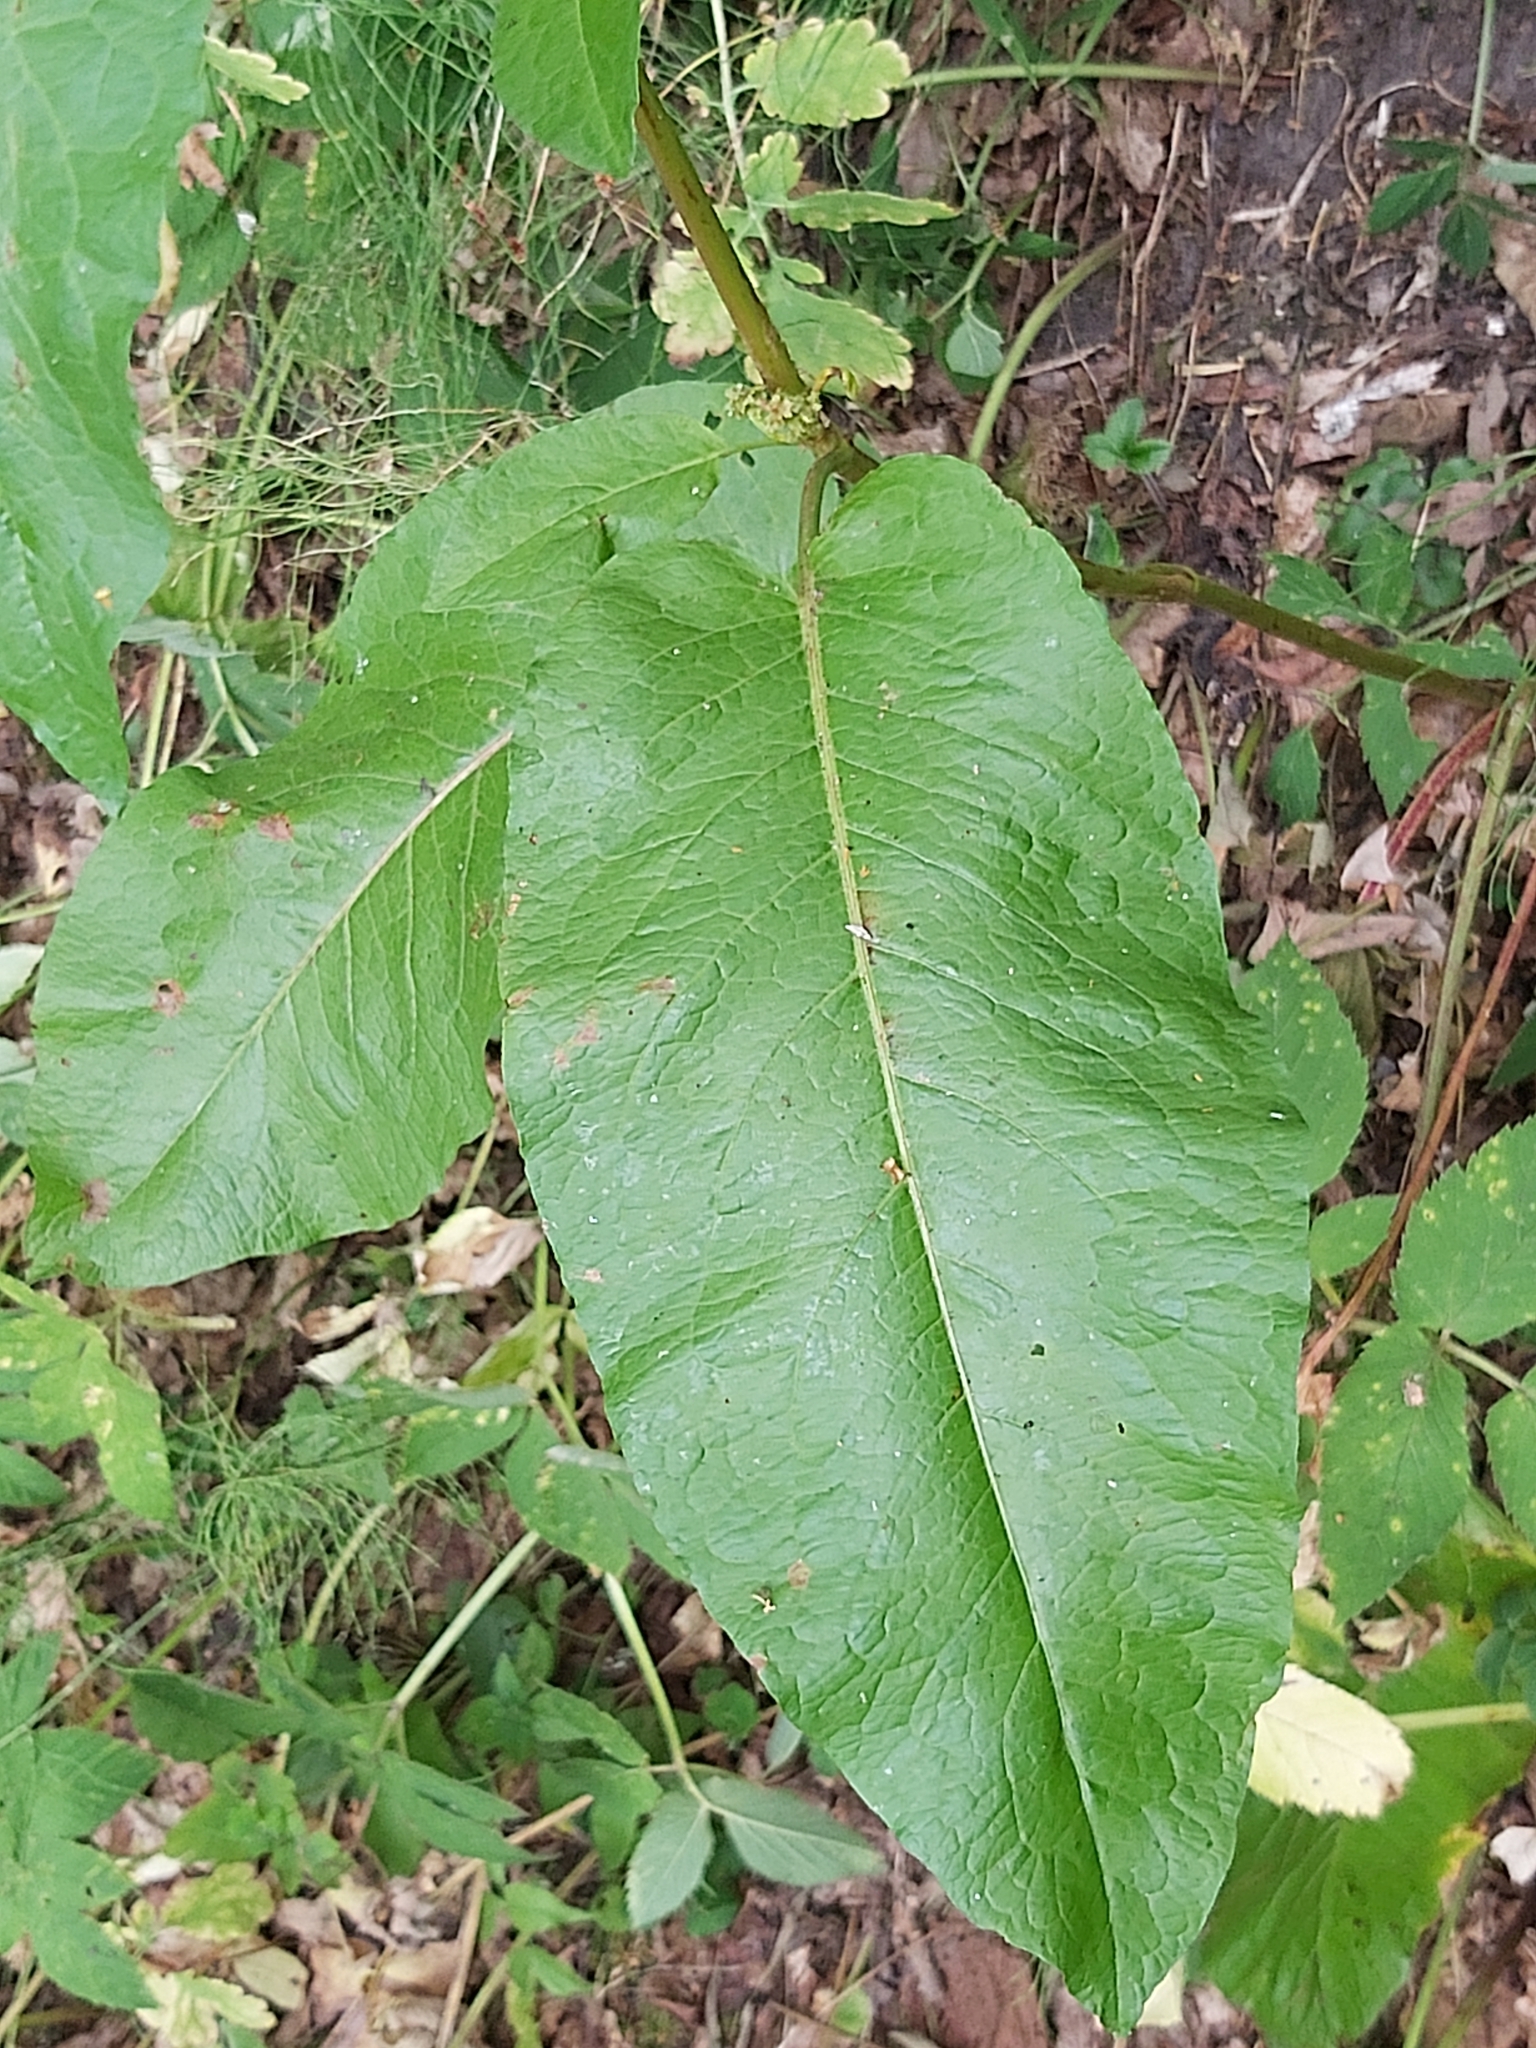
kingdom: Plantae
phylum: Tracheophyta
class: Magnoliopsida
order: Caryophyllales
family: Polygonaceae
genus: Rumex
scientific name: Rumex obtusifolius
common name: Bitter dock
